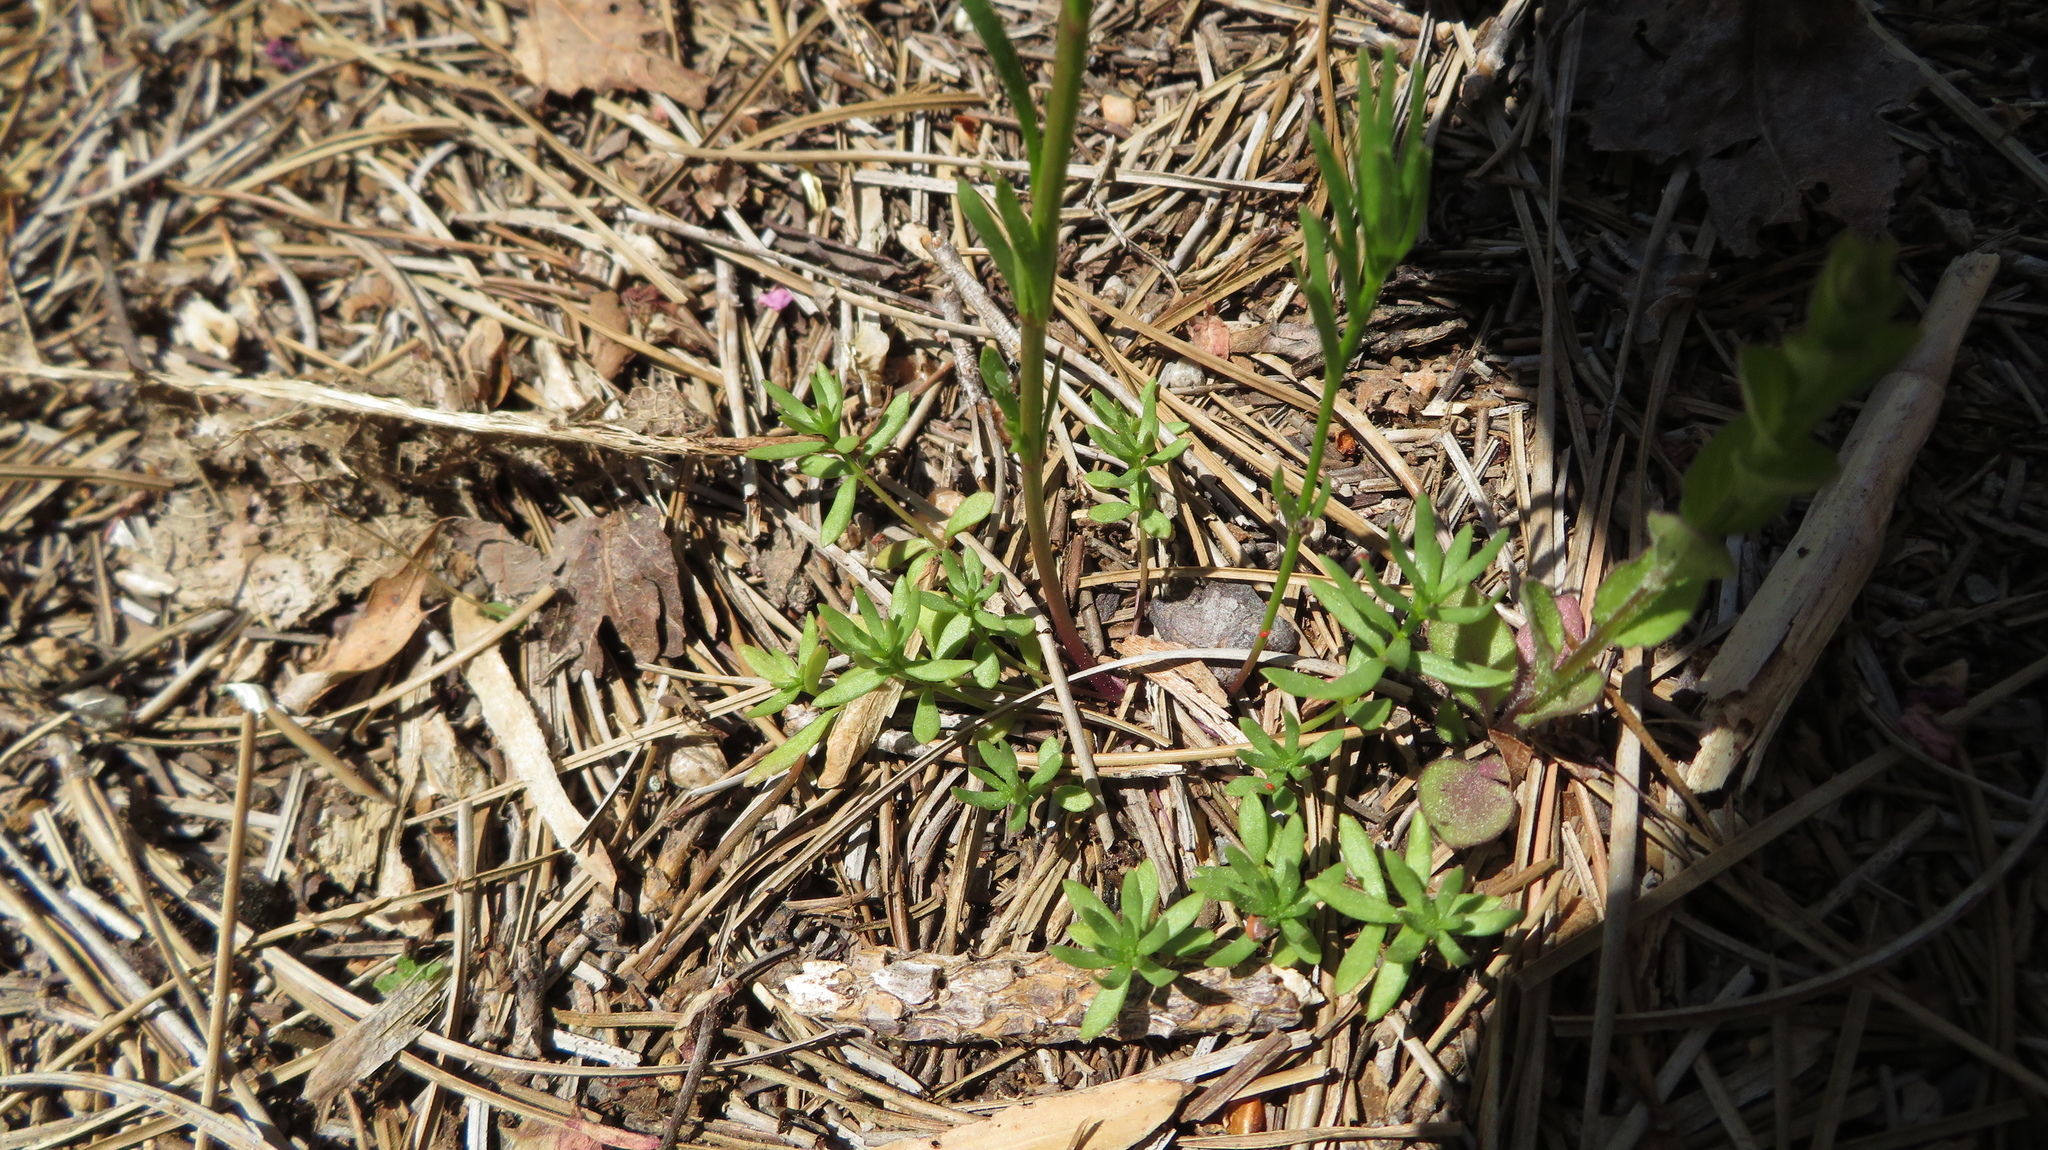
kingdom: Plantae
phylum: Tracheophyta
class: Magnoliopsida
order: Lamiales
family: Plantaginaceae
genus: Nuttallanthus
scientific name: Nuttallanthus canadensis
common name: Blue toadflax
